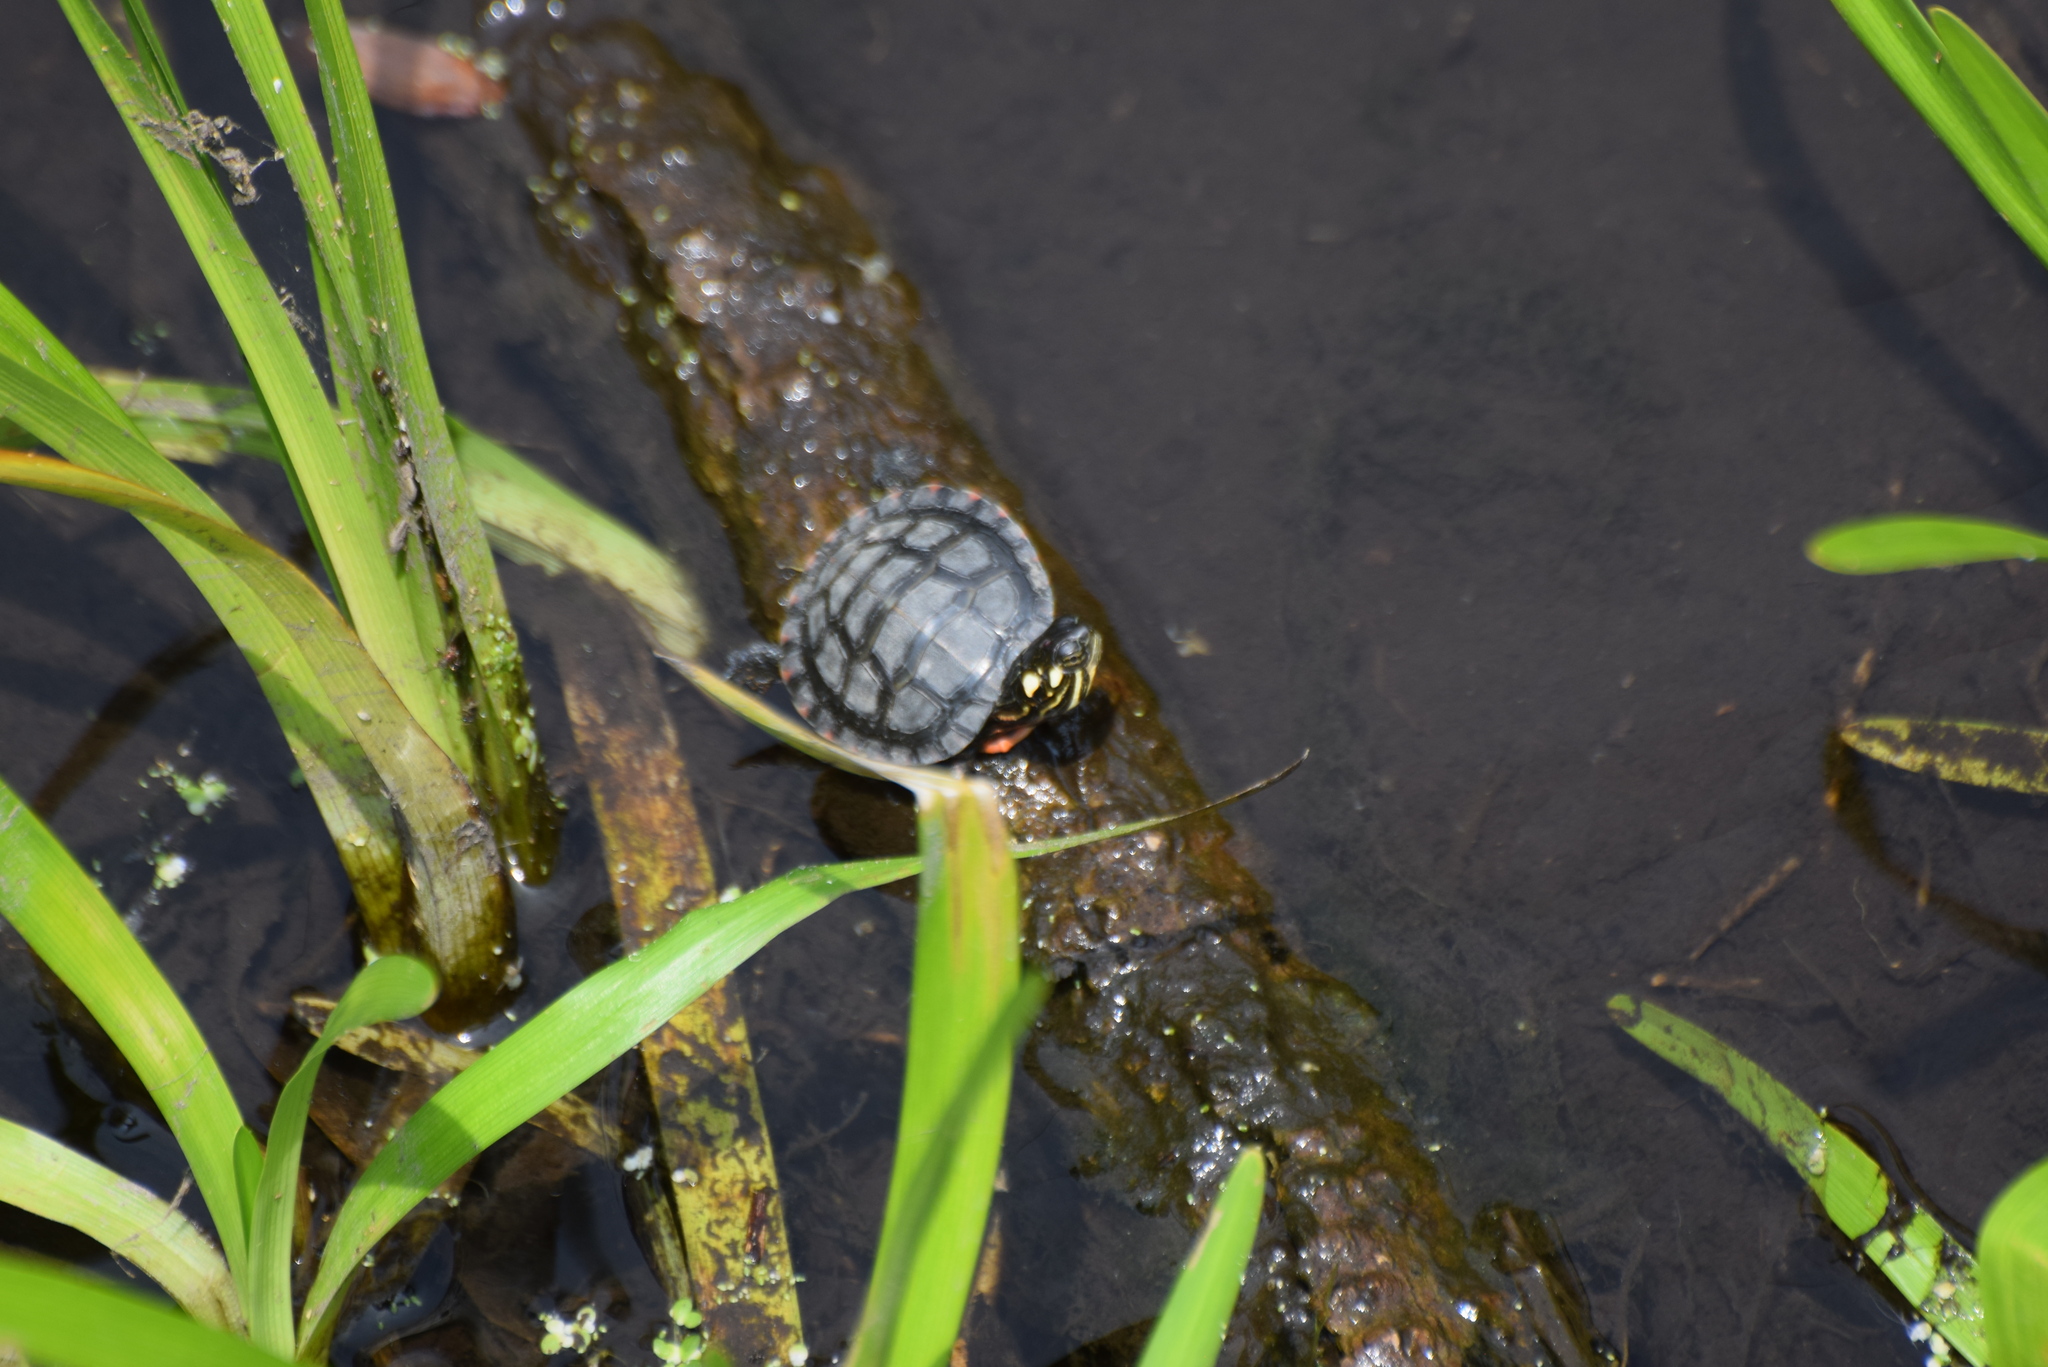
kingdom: Animalia
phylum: Chordata
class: Testudines
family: Emydidae
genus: Chrysemys
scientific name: Chrysemys picta
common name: Painted turtle
